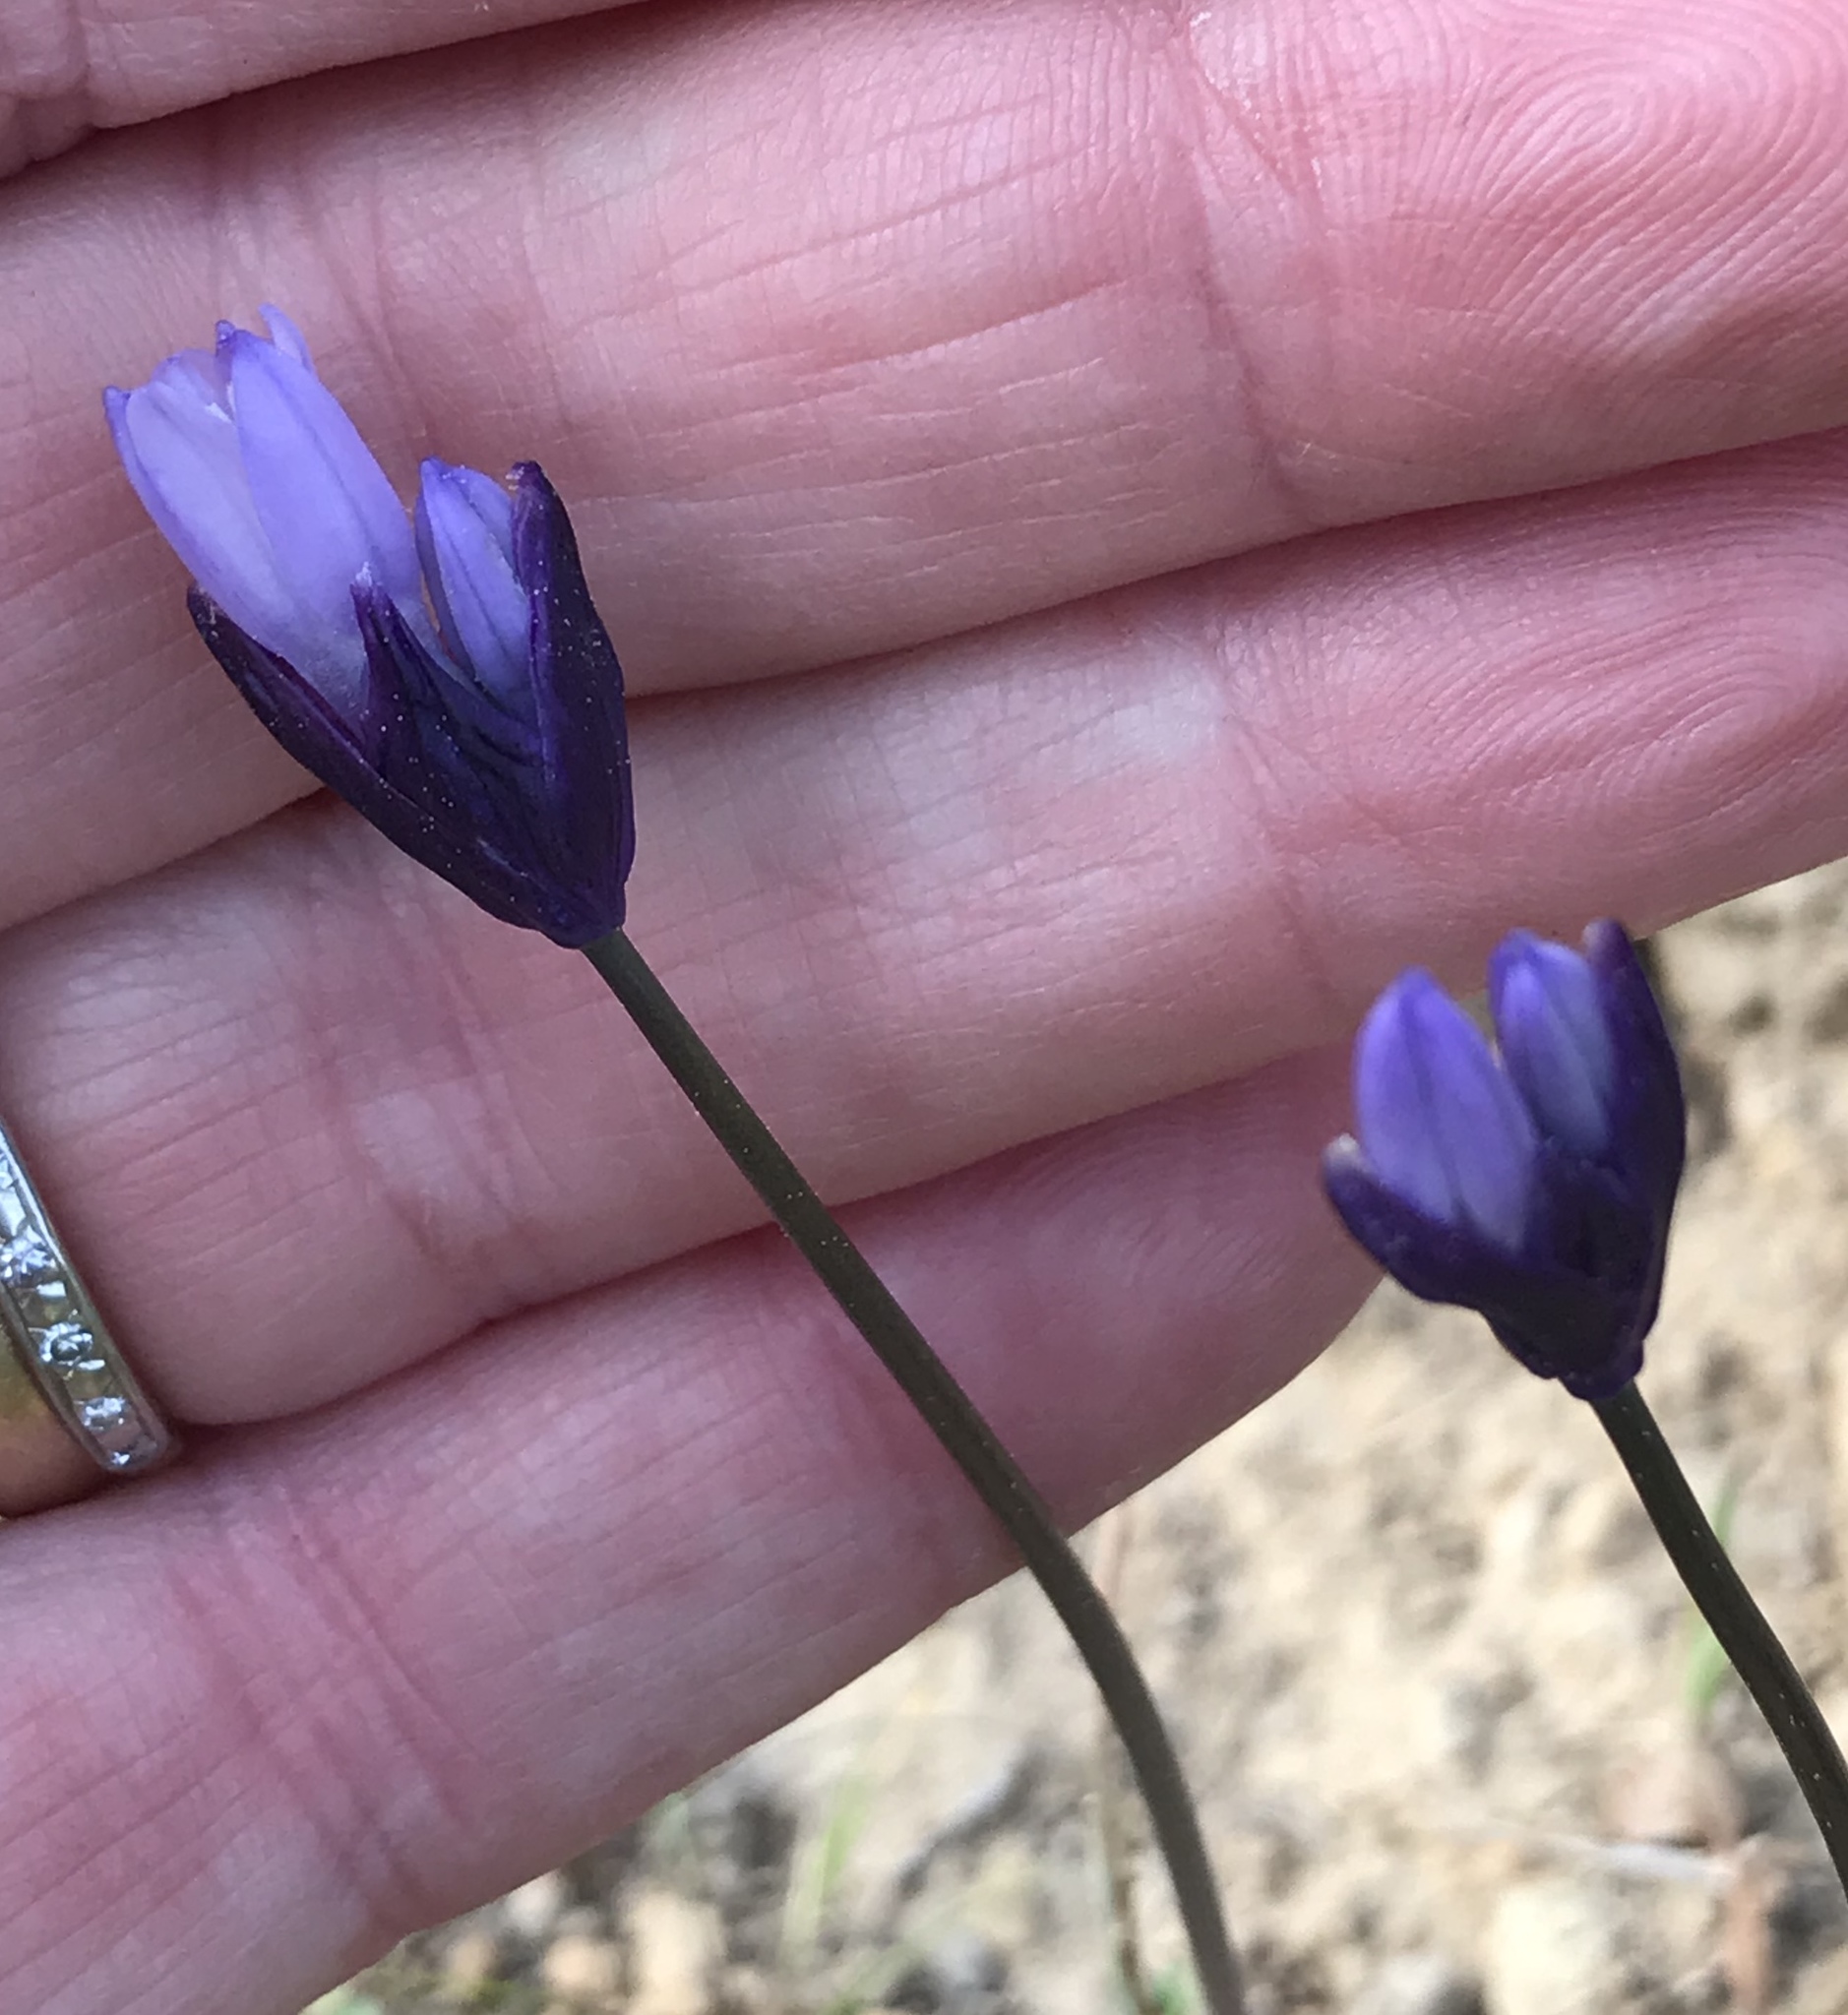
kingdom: Plantae
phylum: Tracheophyta
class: Liliopsida
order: Asparagales
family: Asparagaceae
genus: Dipterostemon
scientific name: Dipterostemon capitatus
